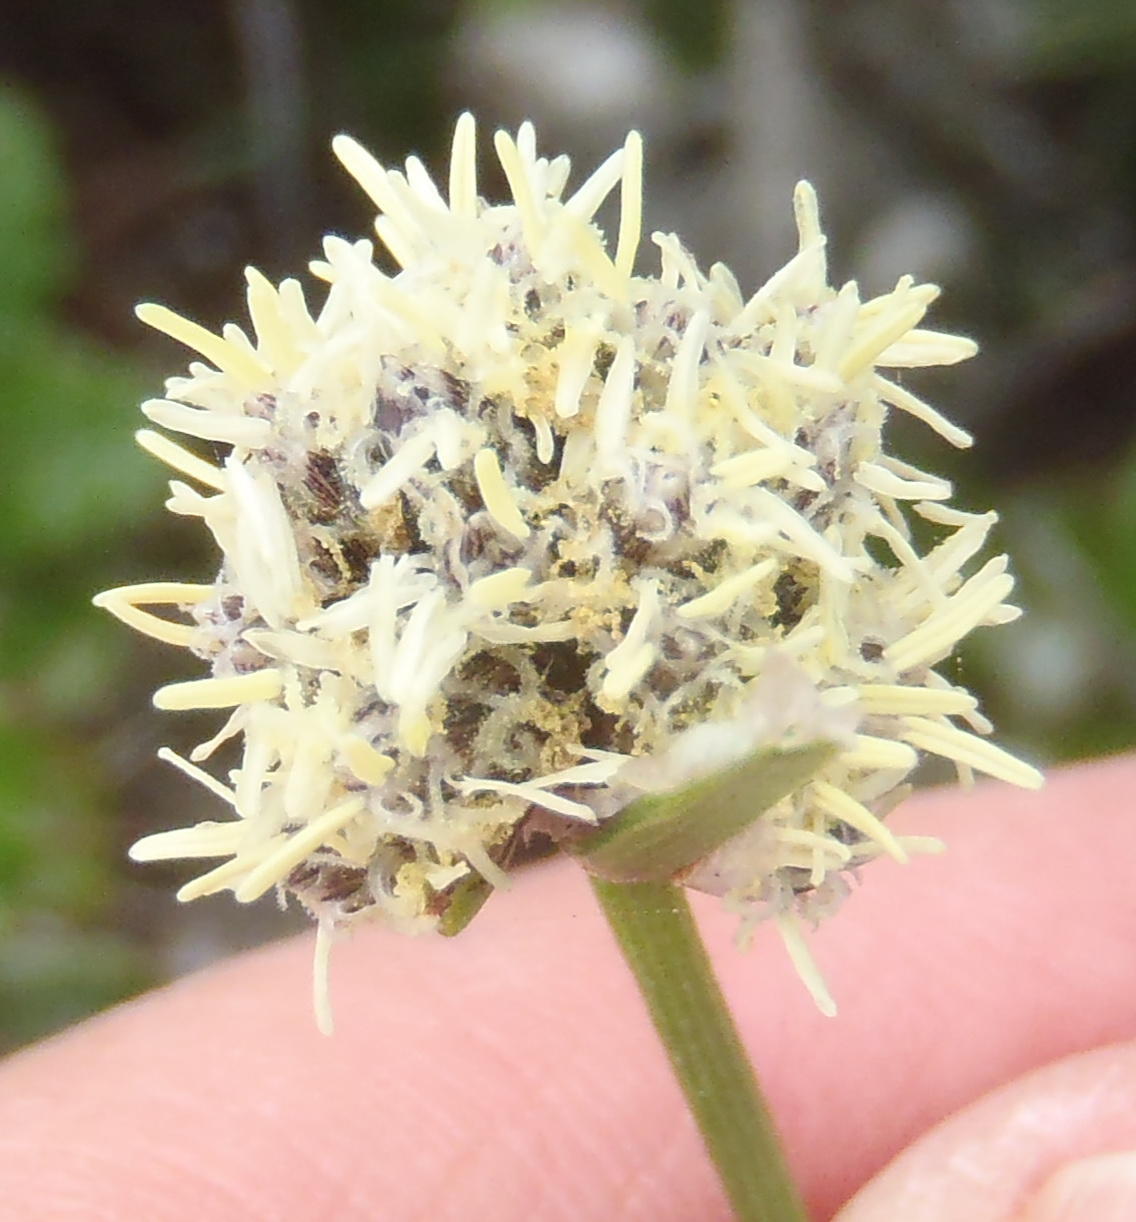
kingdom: Plantae
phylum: Tracheophyta
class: Liliopsida
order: Poales
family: Cyperaceae
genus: Ficinia
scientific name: Ficinia truncata
